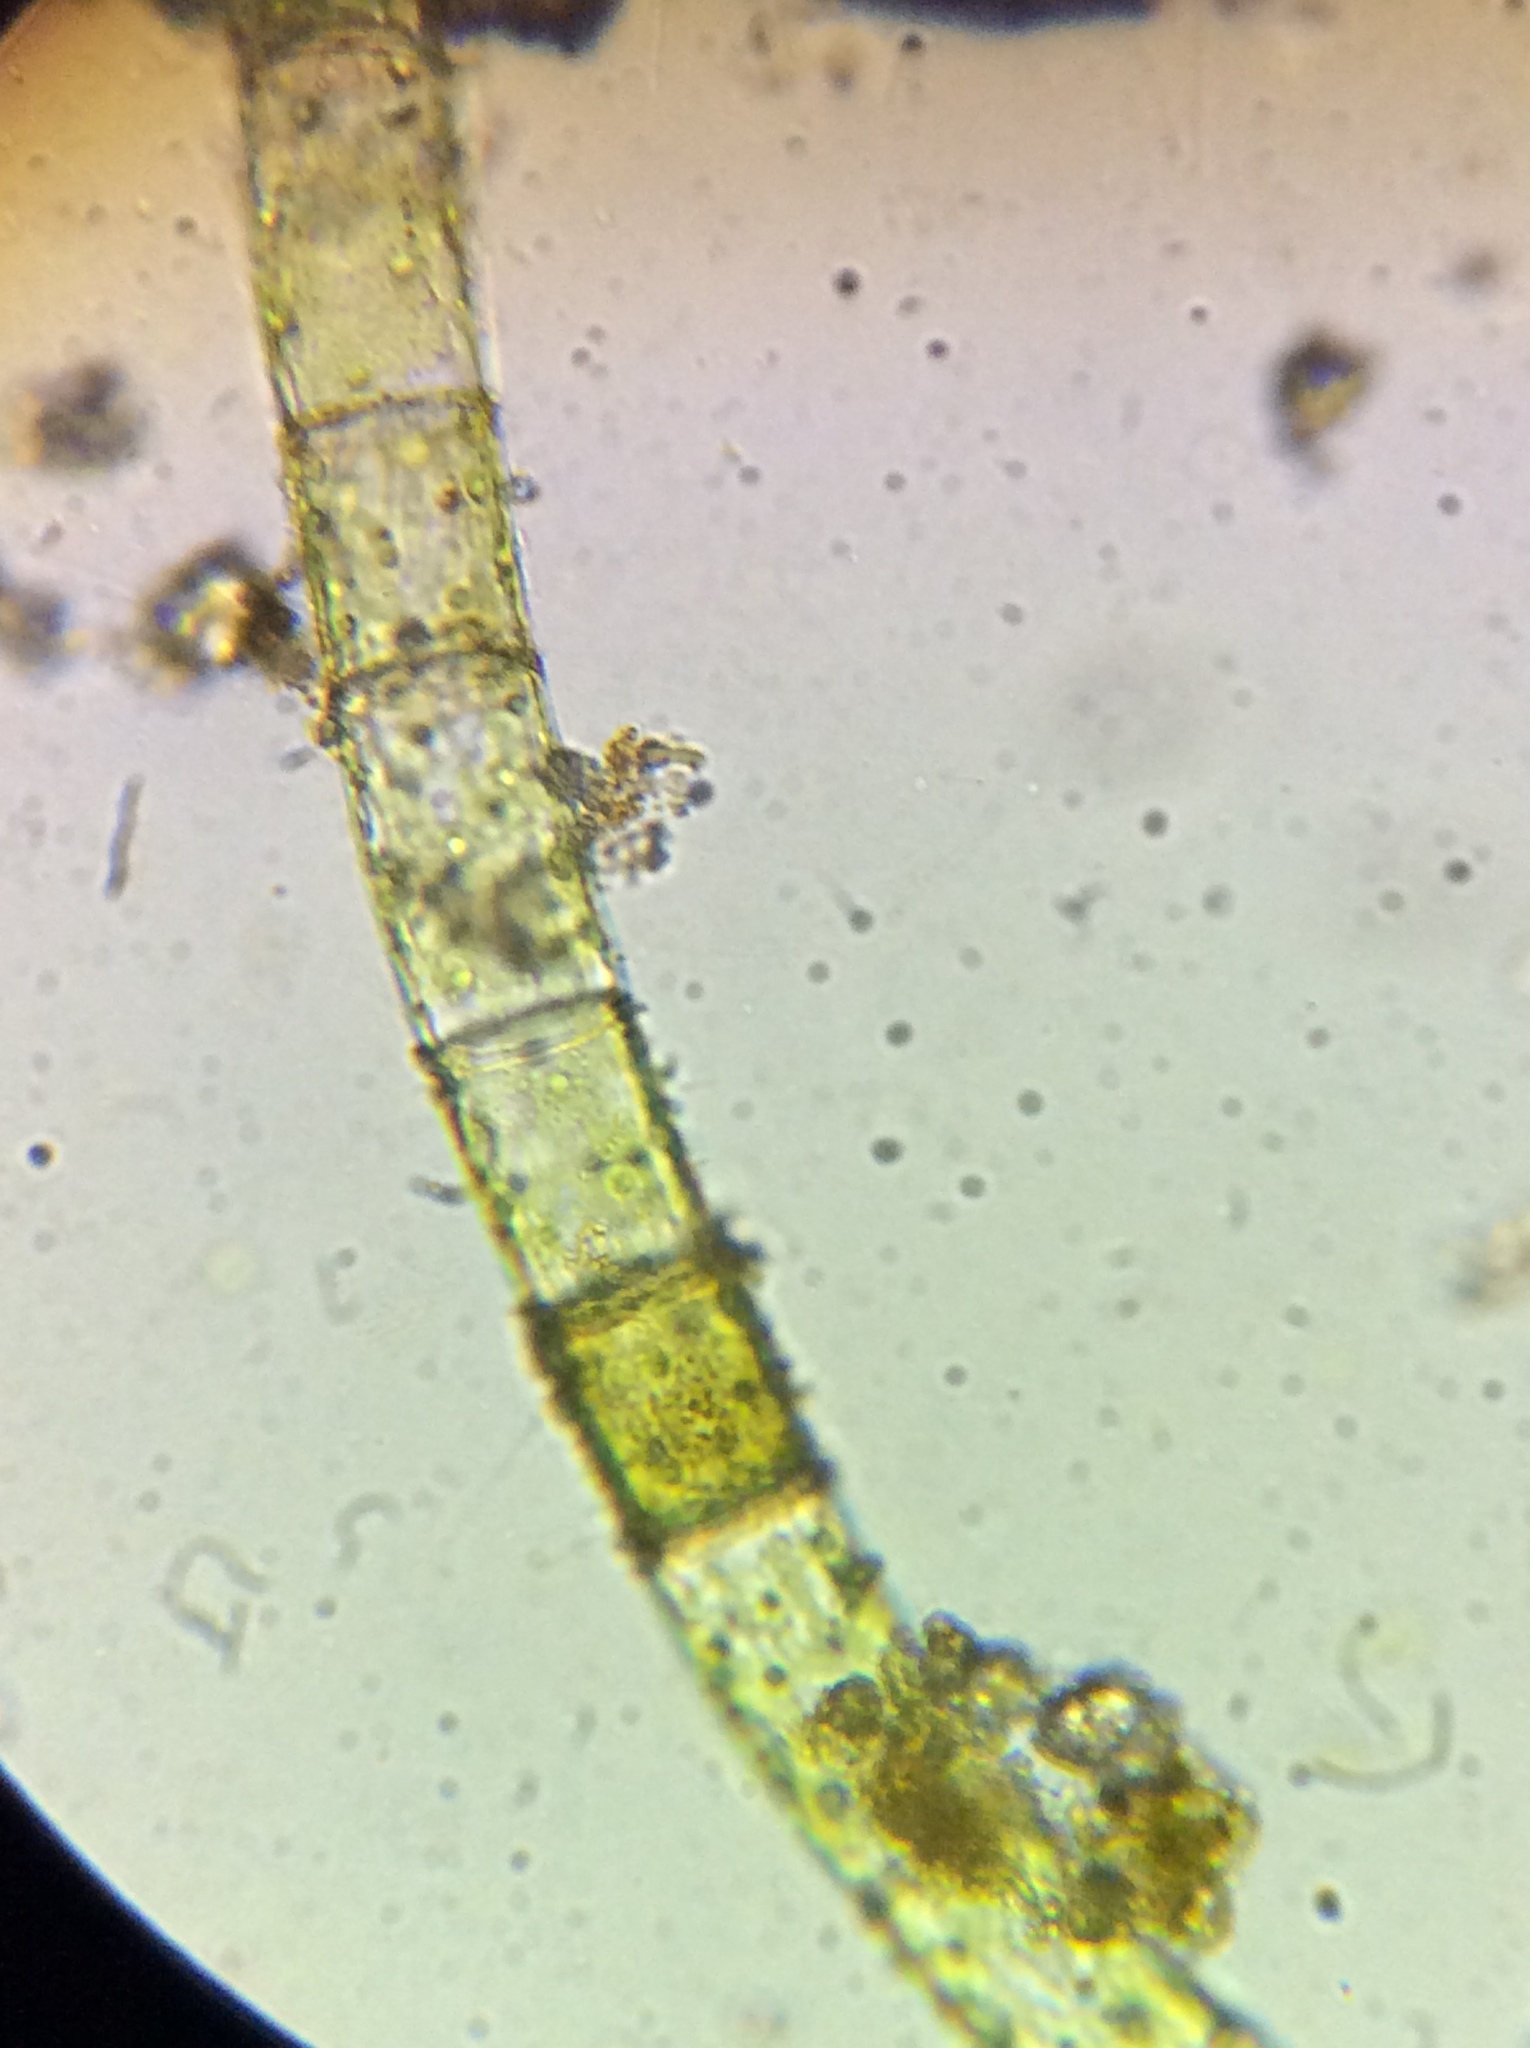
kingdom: Plantae
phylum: Chlorophyta
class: Chlorophyceae
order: Oedogoniales
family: Oedogoniaceae
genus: Oedogonium
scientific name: Oedogonium
